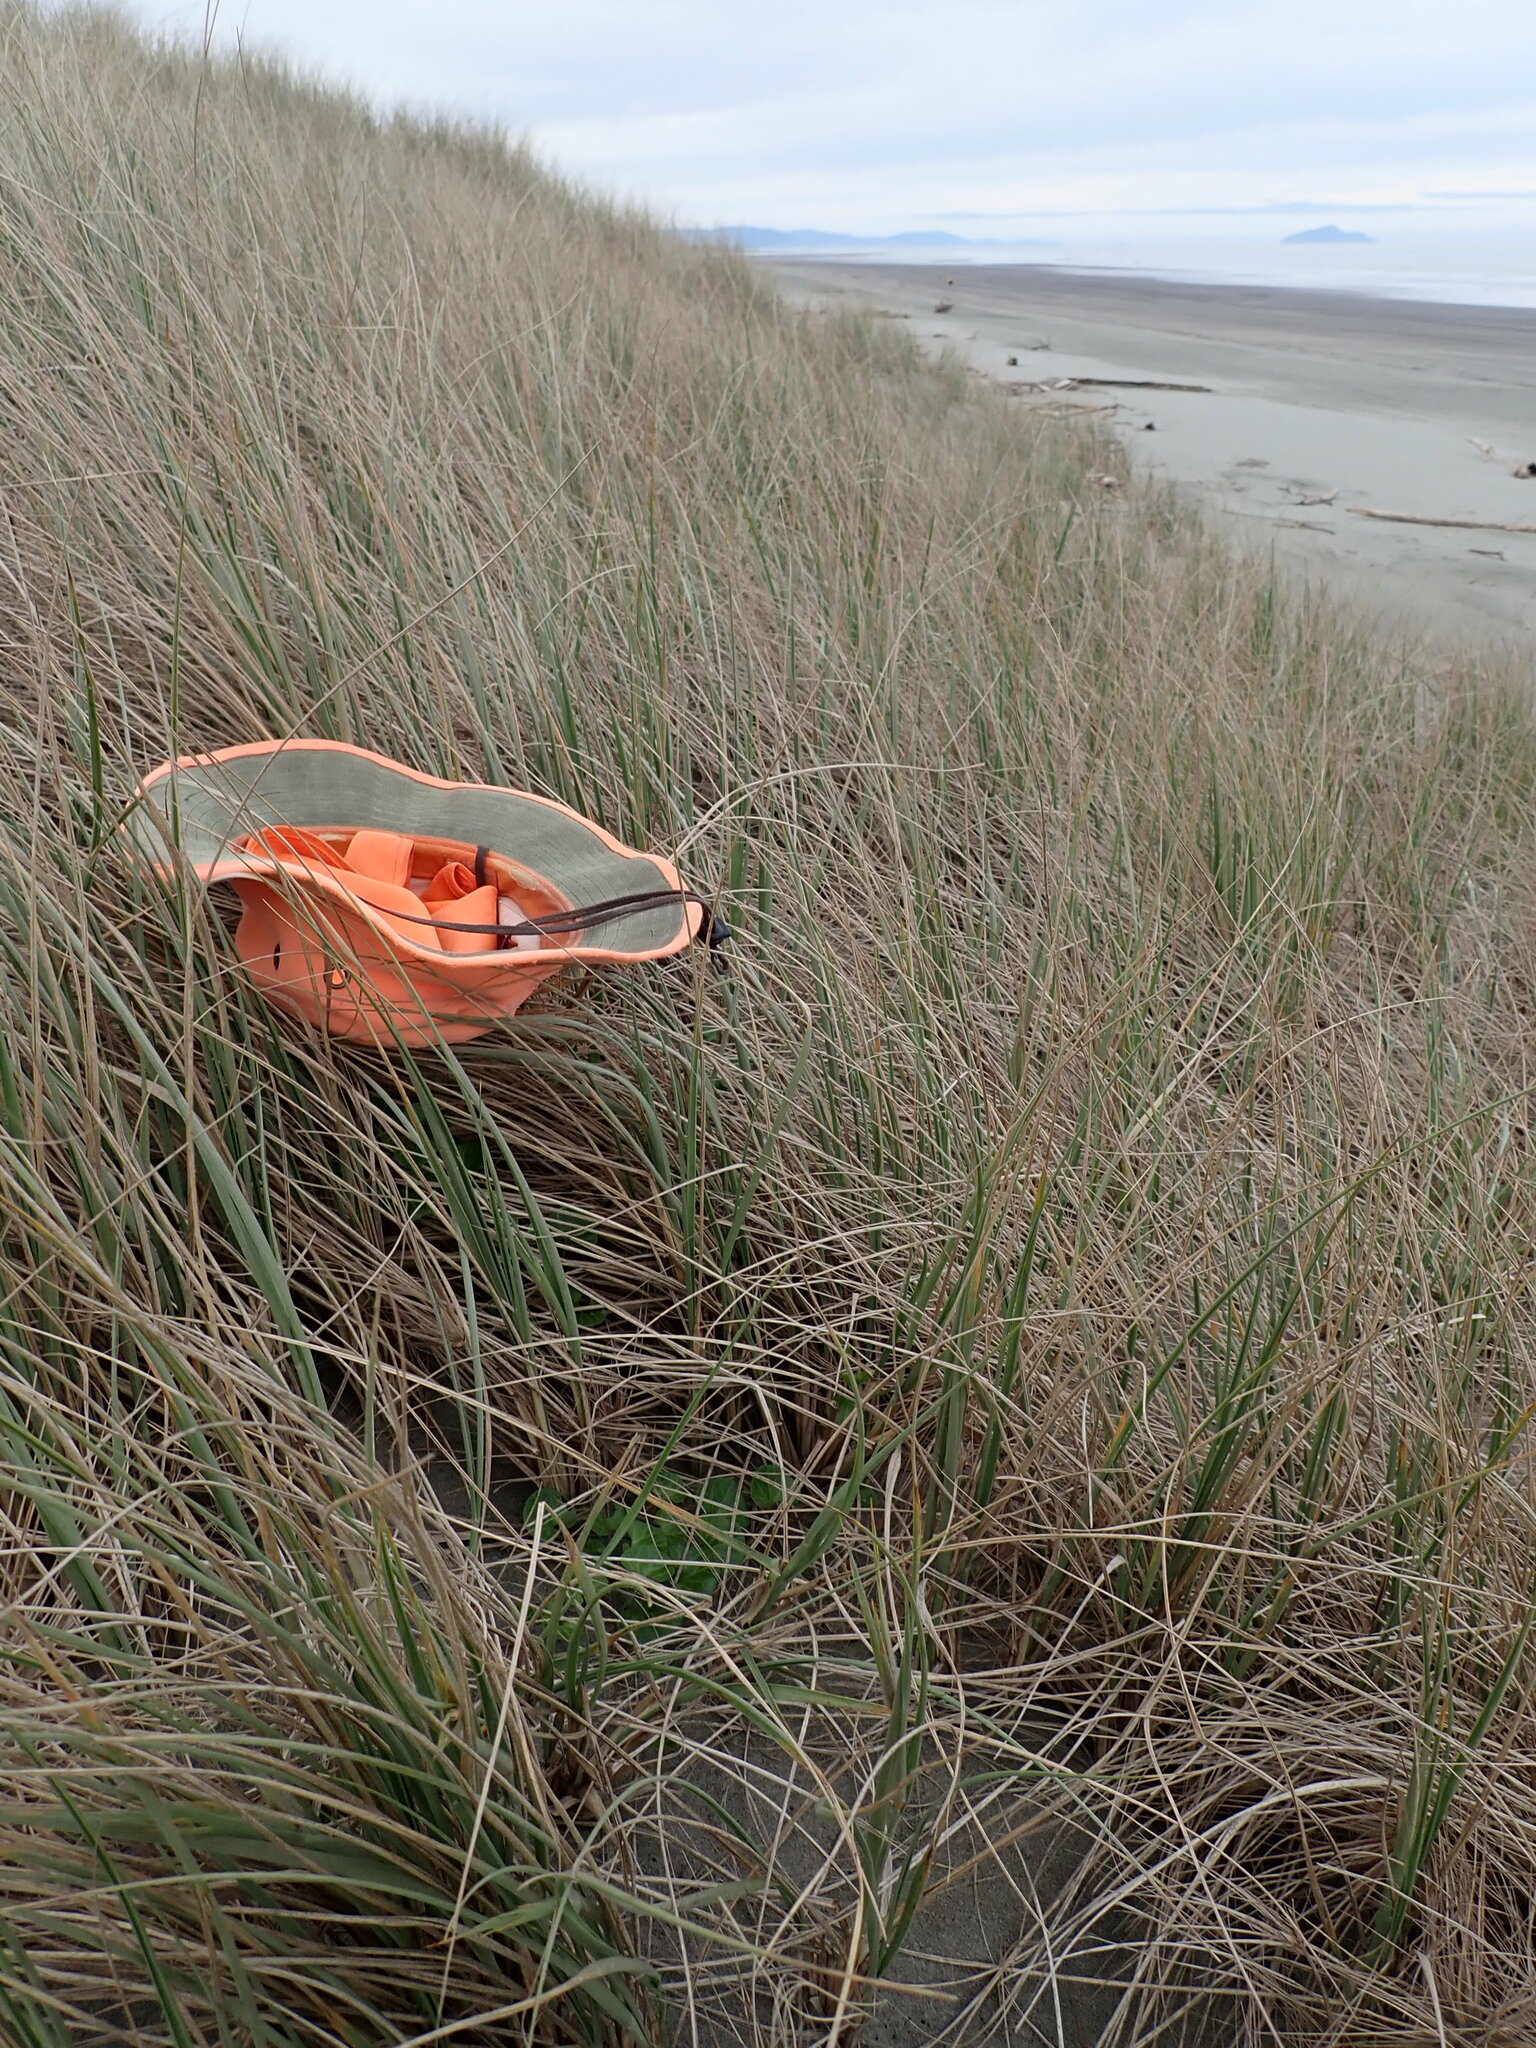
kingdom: Plantae
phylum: Tracheophyta
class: Magnoliopsida
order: Solanales
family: Convolvulaceae
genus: Calystegia
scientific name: Calystegia soldanella
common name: Sea bindweed
